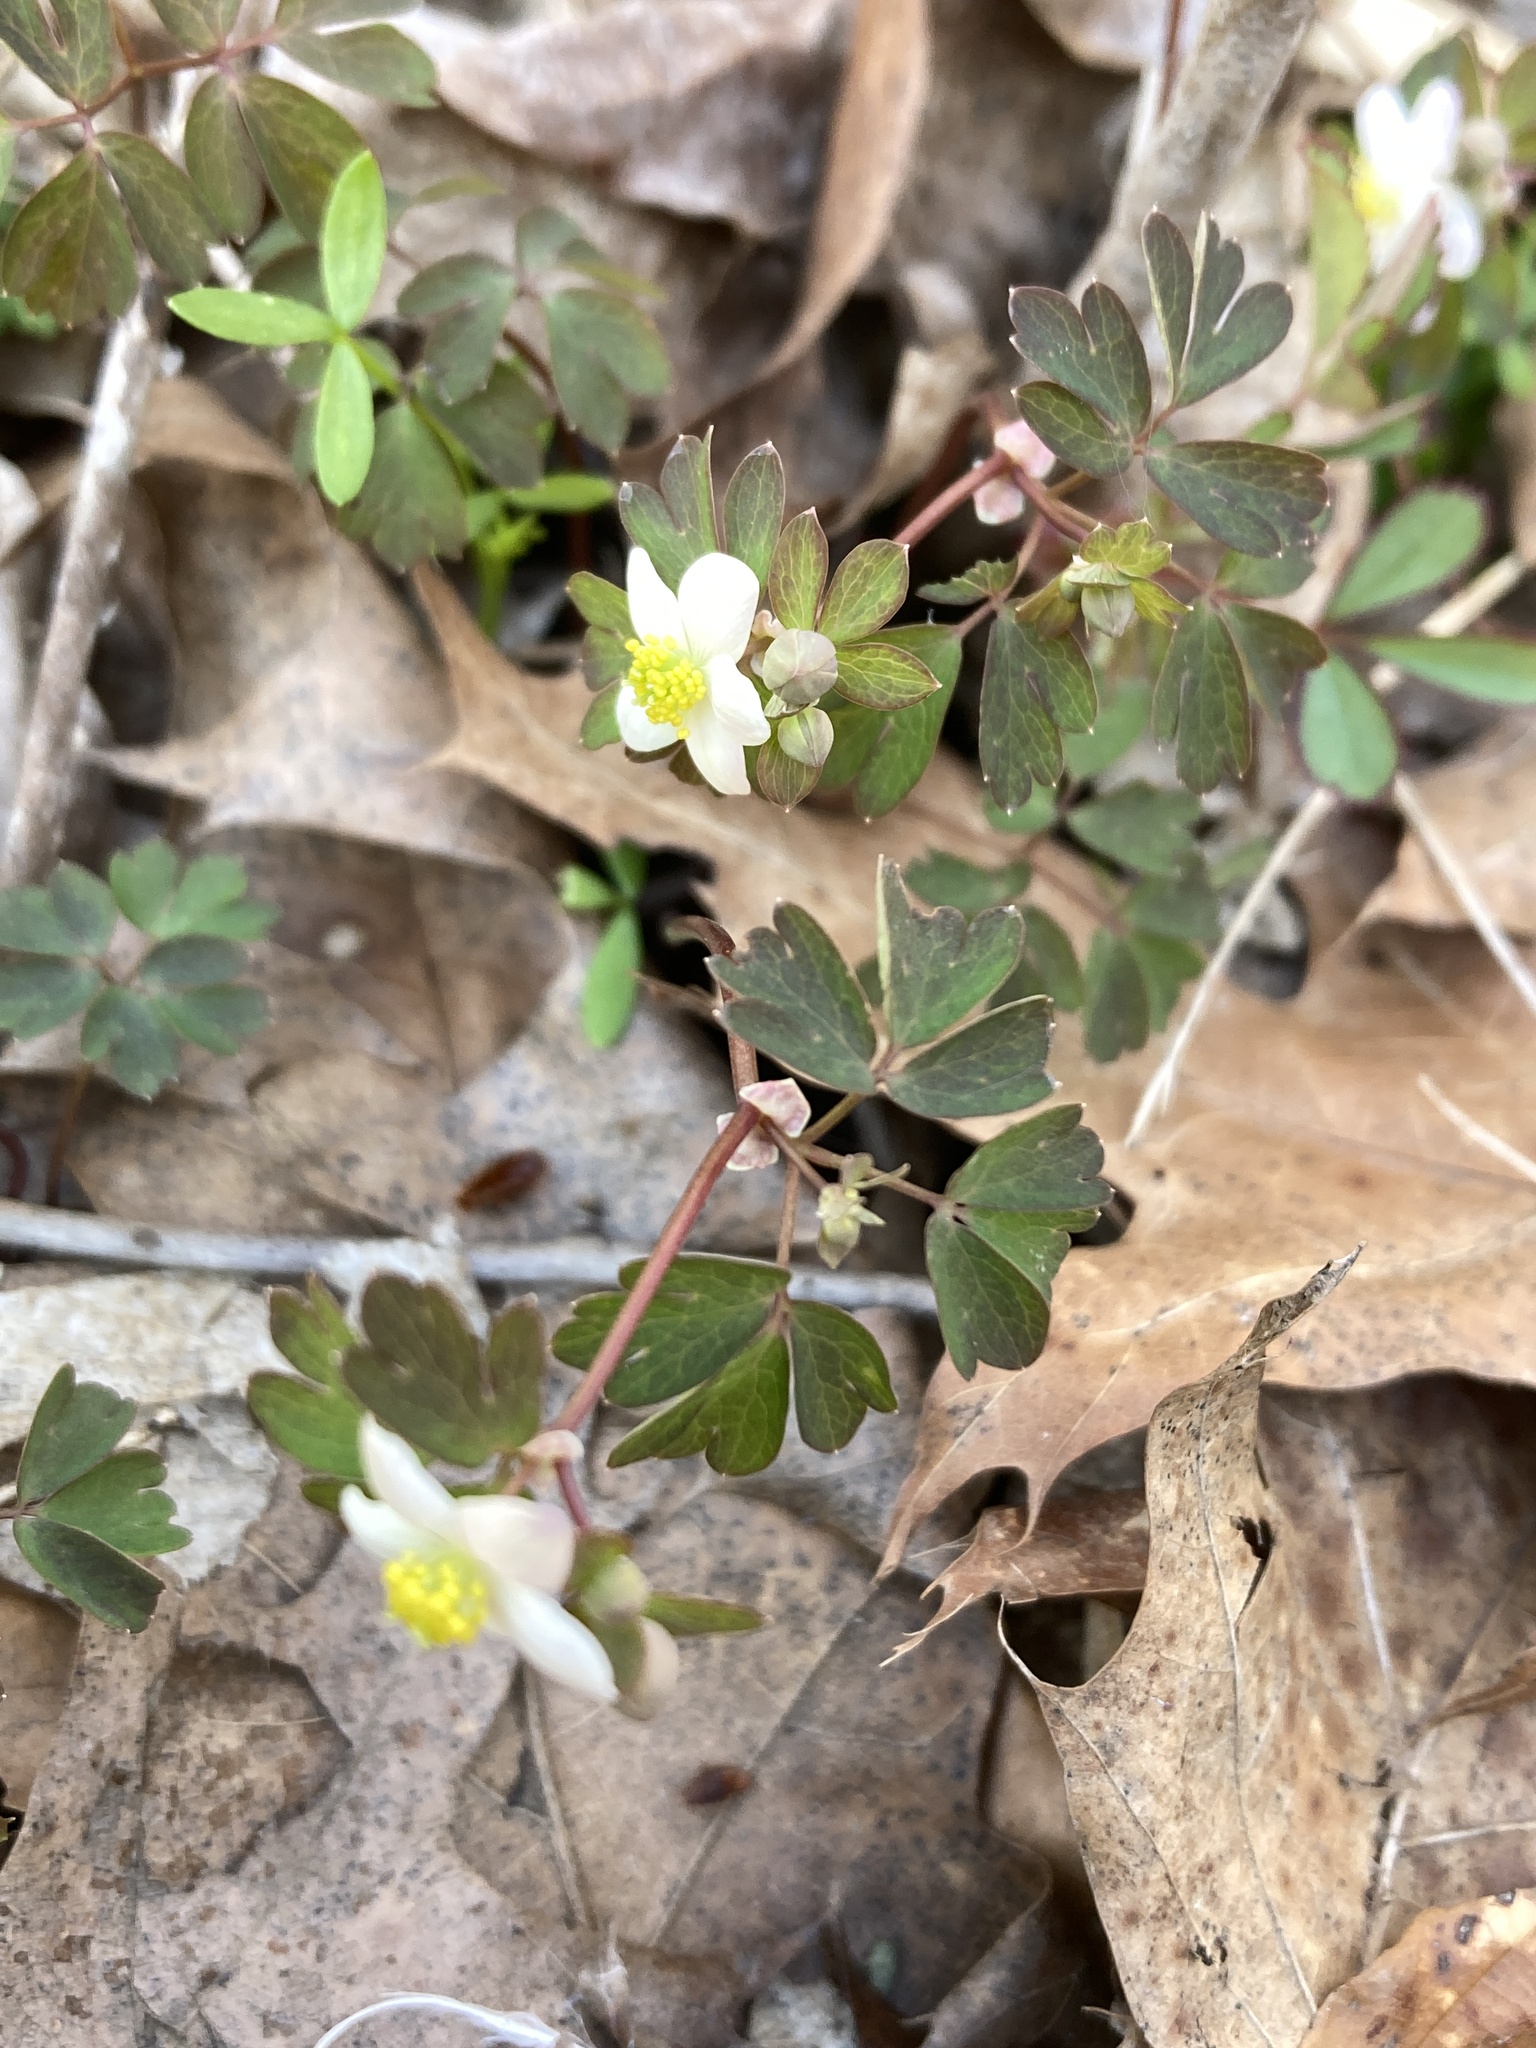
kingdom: Plantae
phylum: Tracheophyta
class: Magnoliopsida
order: Ranunculales
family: Ranunculaceae
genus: Enemion
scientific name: Enemion biternatum
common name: Eastern false rue-anemone
